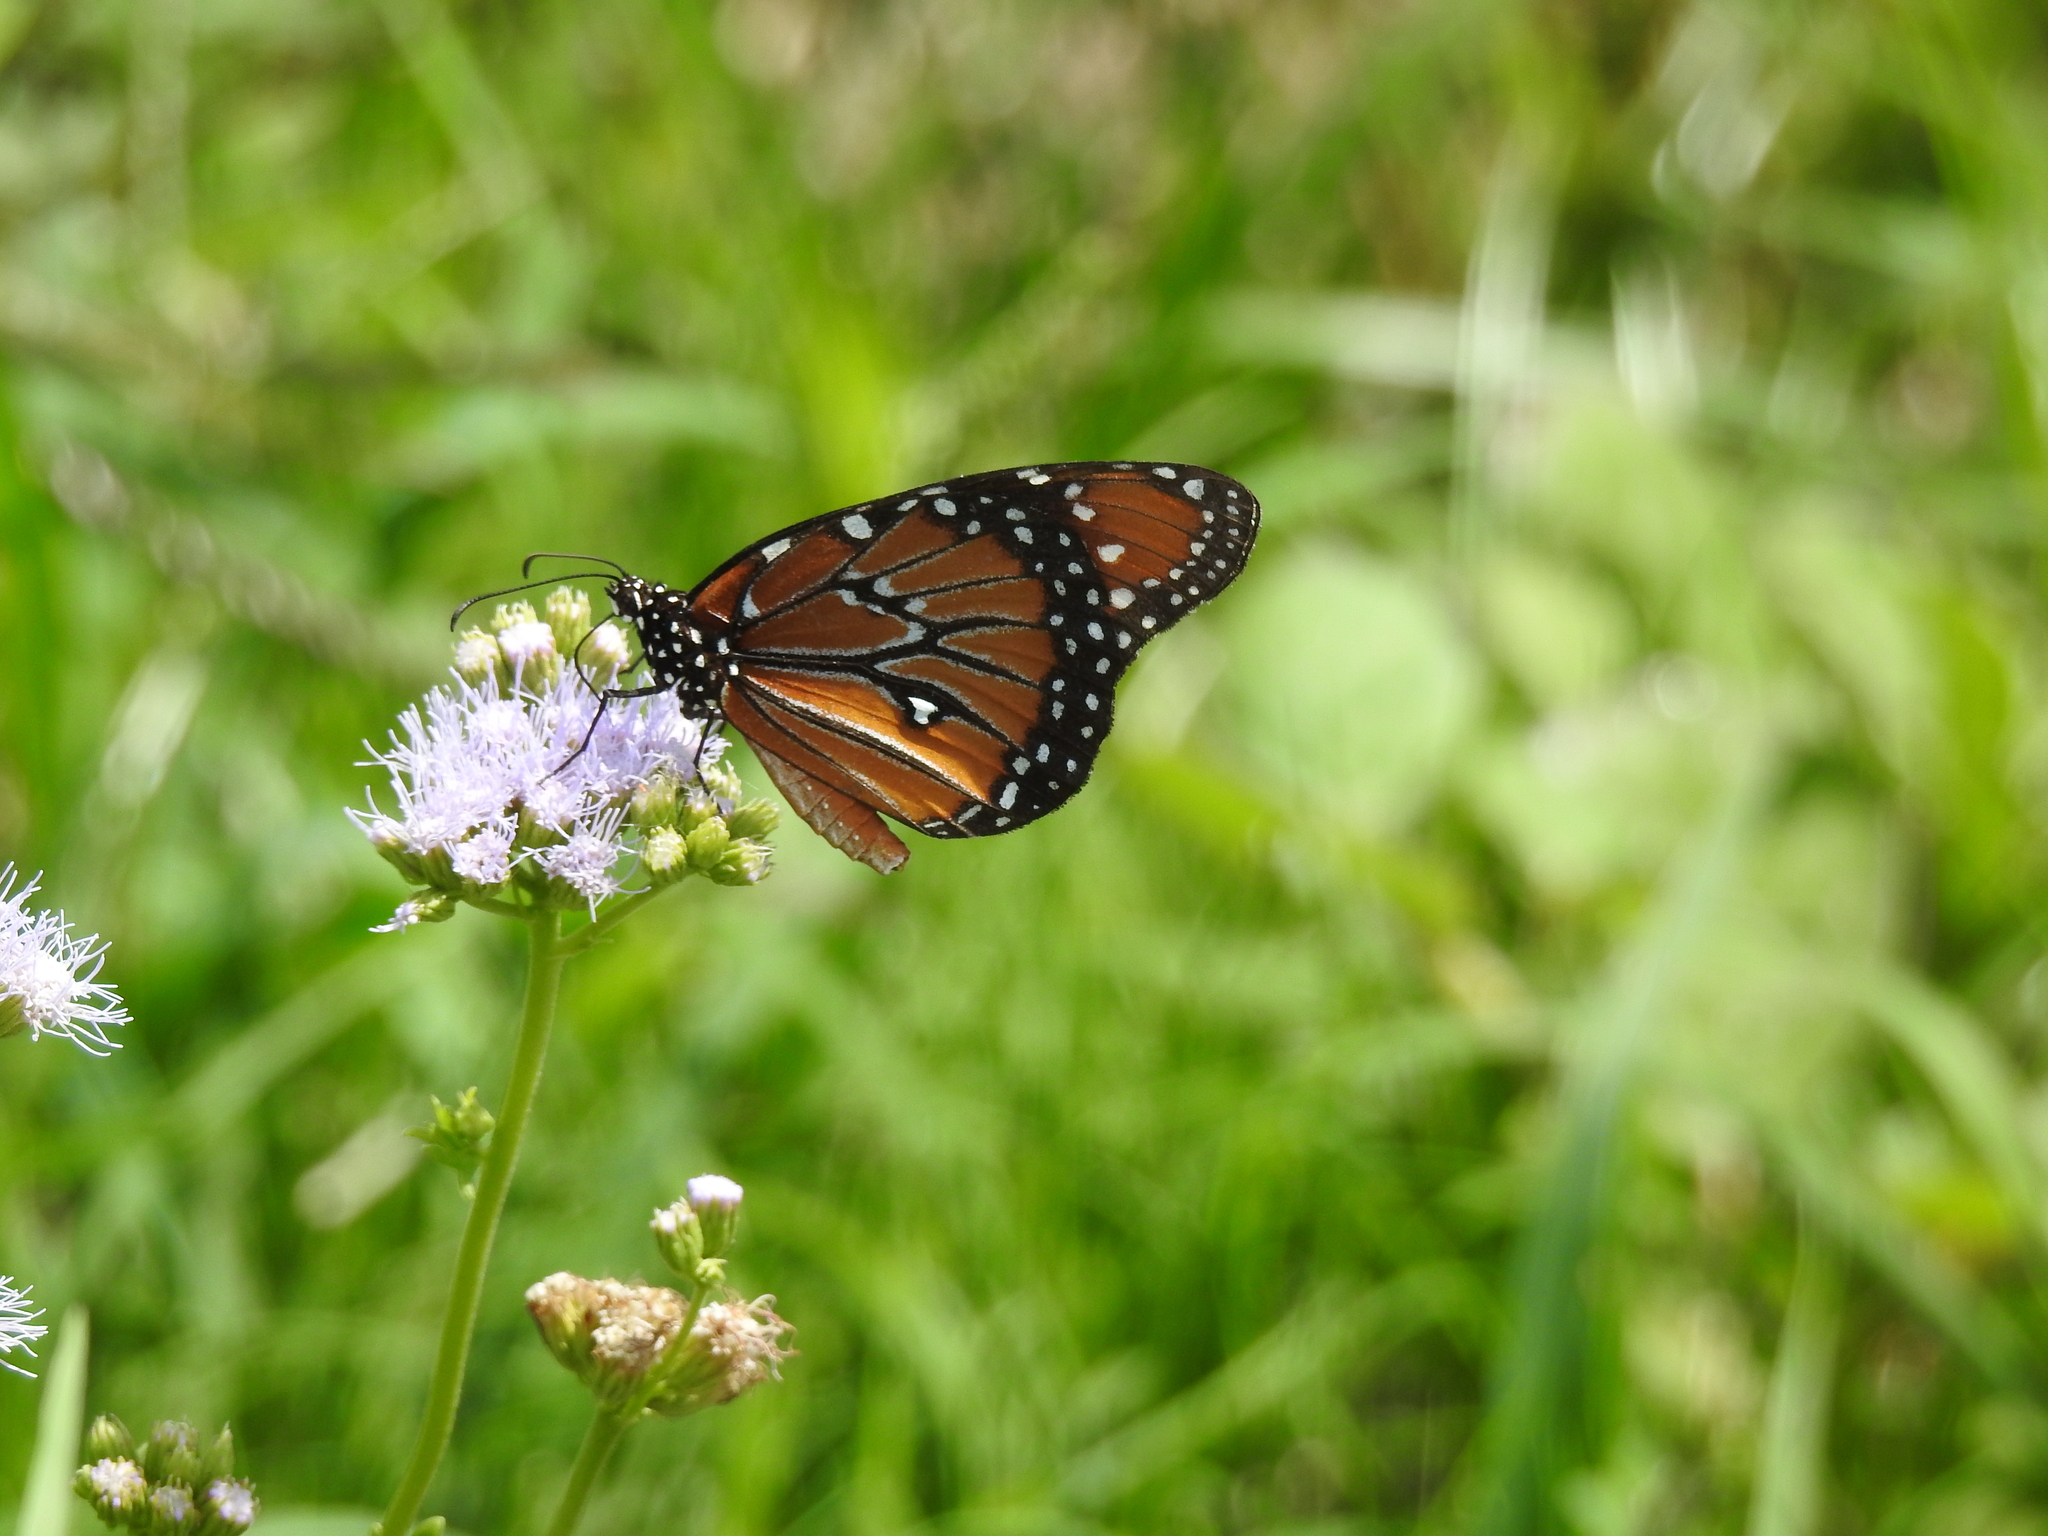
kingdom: Animalia
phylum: Arthropoda
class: Insecta
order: Lepidoptera
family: Nymphalidae
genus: Danaus
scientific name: Danaus gilippus
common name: Queen
